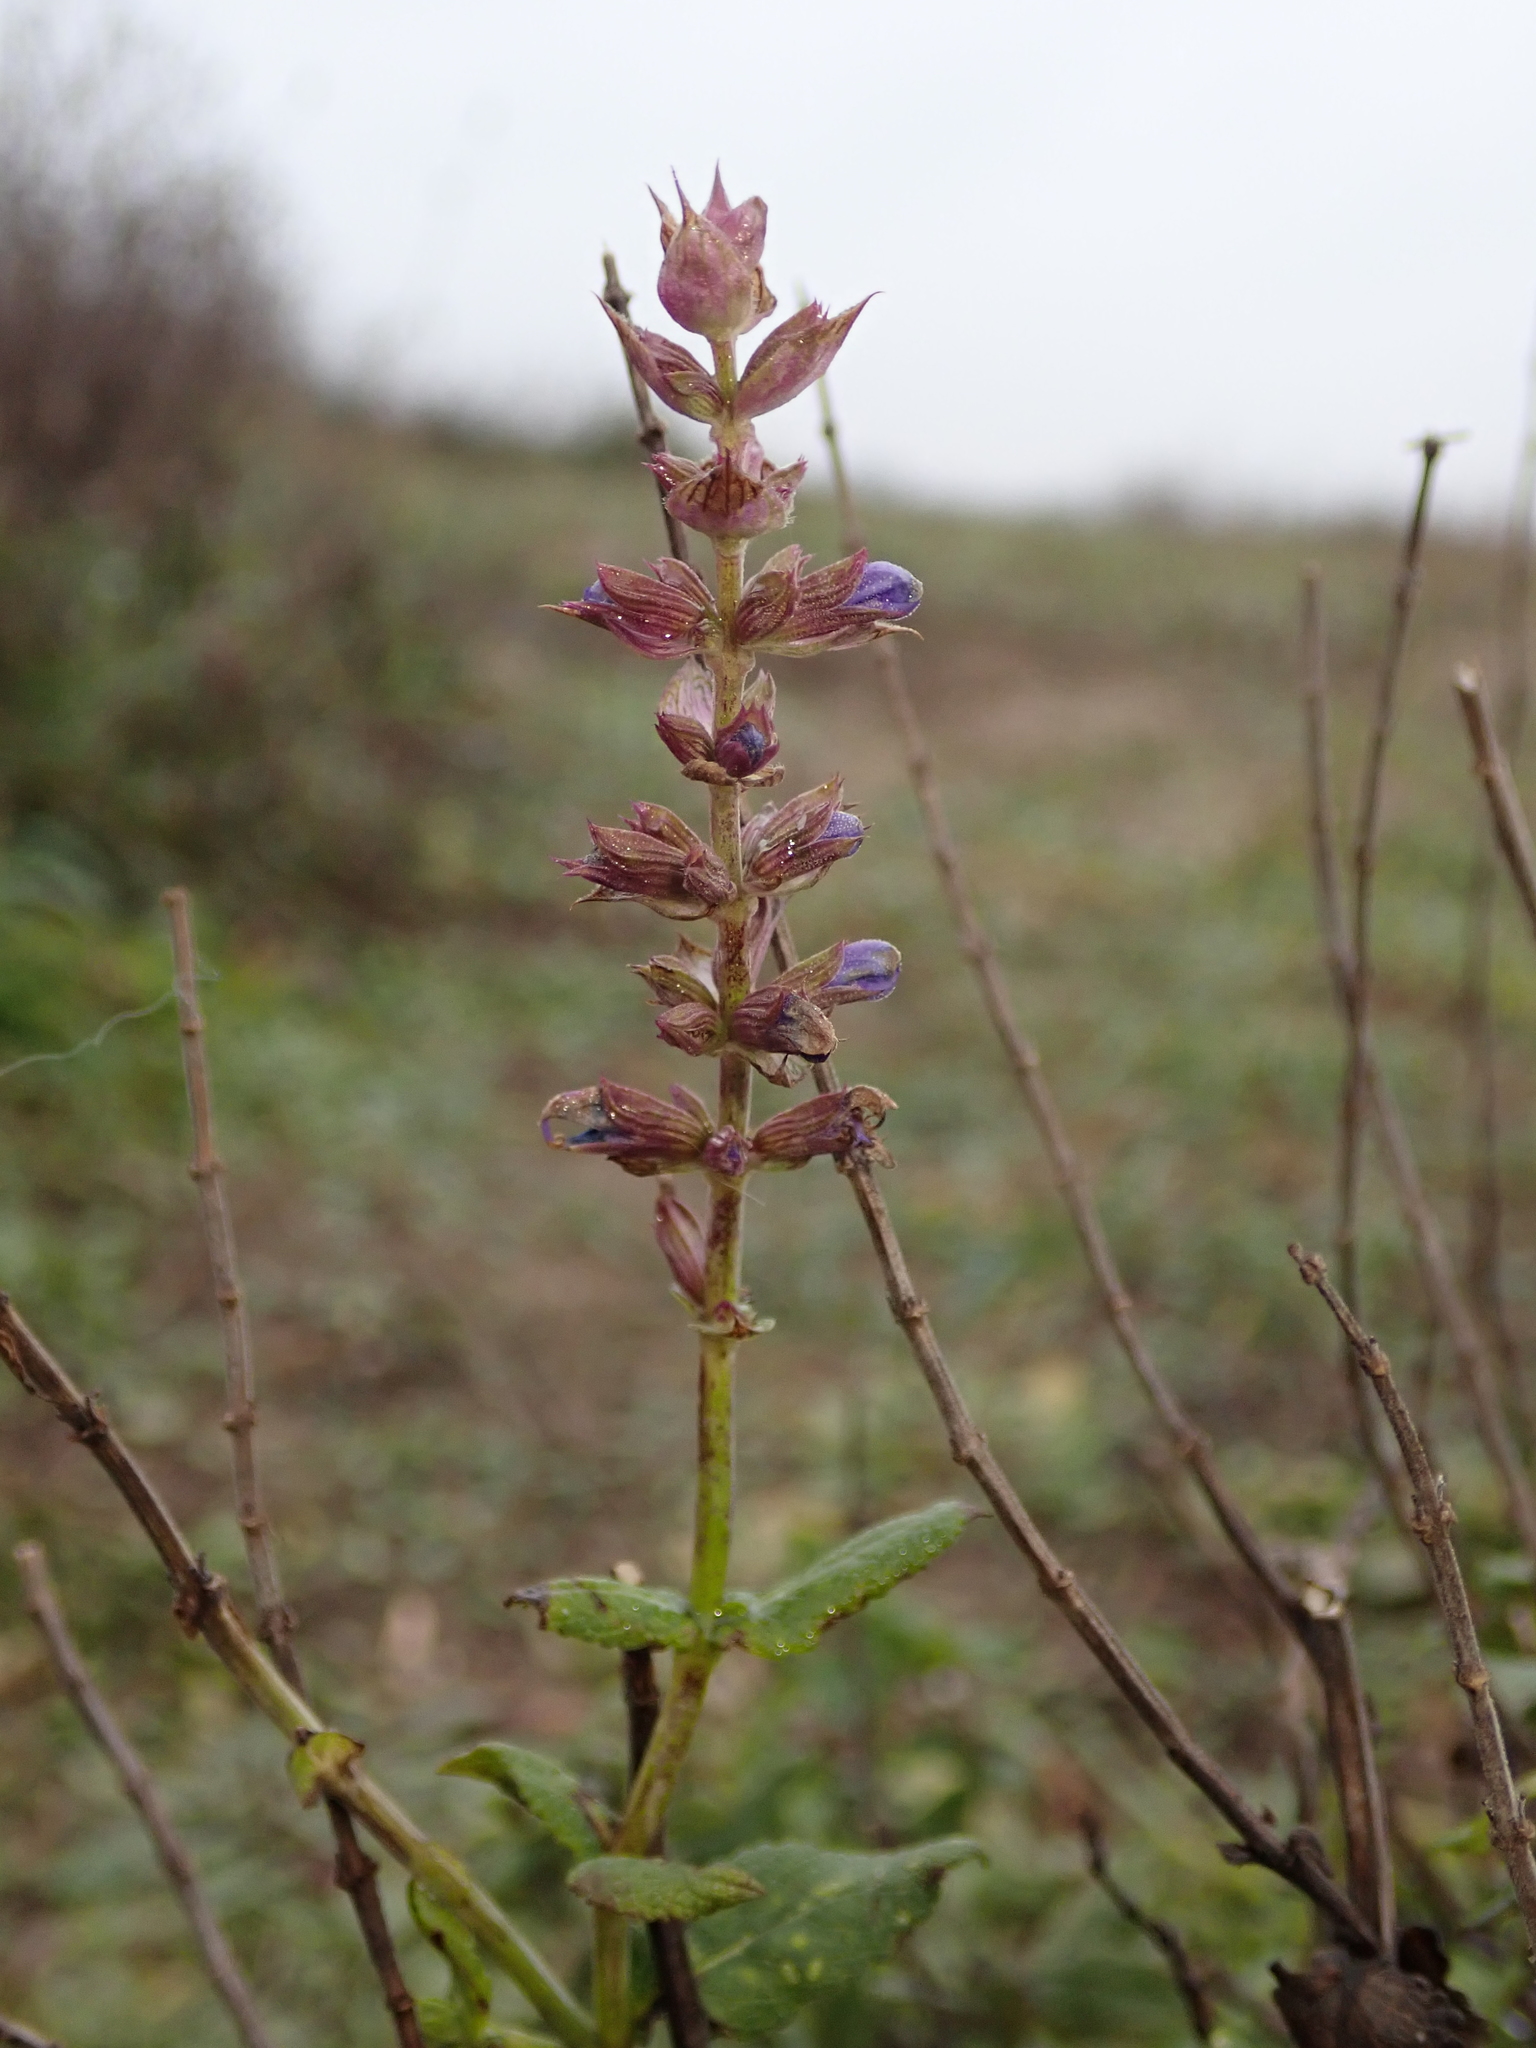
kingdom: Plantae
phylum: Tracheophyta
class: Magnoliopsida
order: Lamiales
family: Lamiaceae
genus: Salvia
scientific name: Salvia nemorosa
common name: Balkan clary
